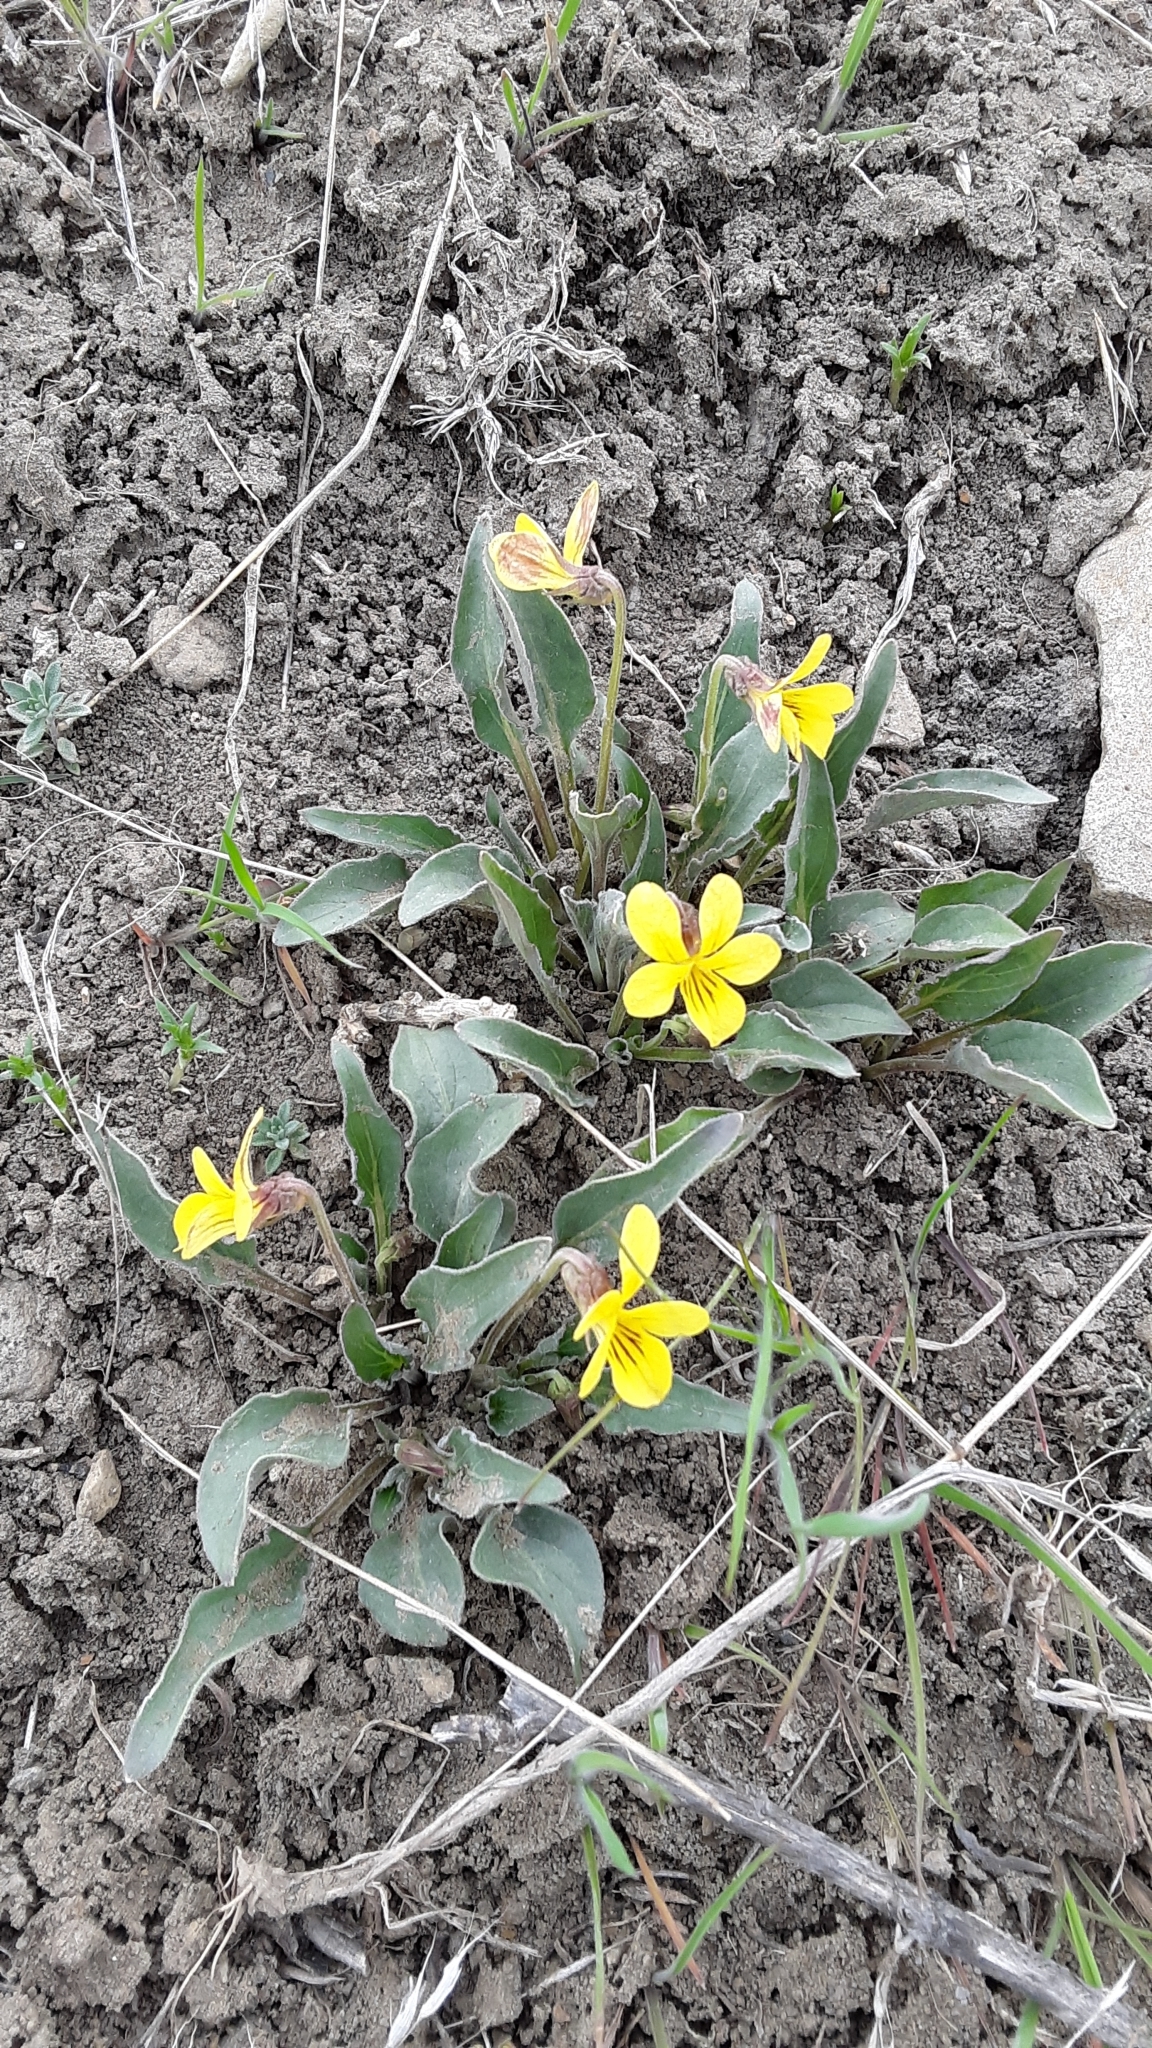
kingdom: Plantae
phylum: Tracheophyta
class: Magnoliopsida
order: Malpighiales
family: Violaceae
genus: Viola
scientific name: Viola vallicola
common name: Valley violet
